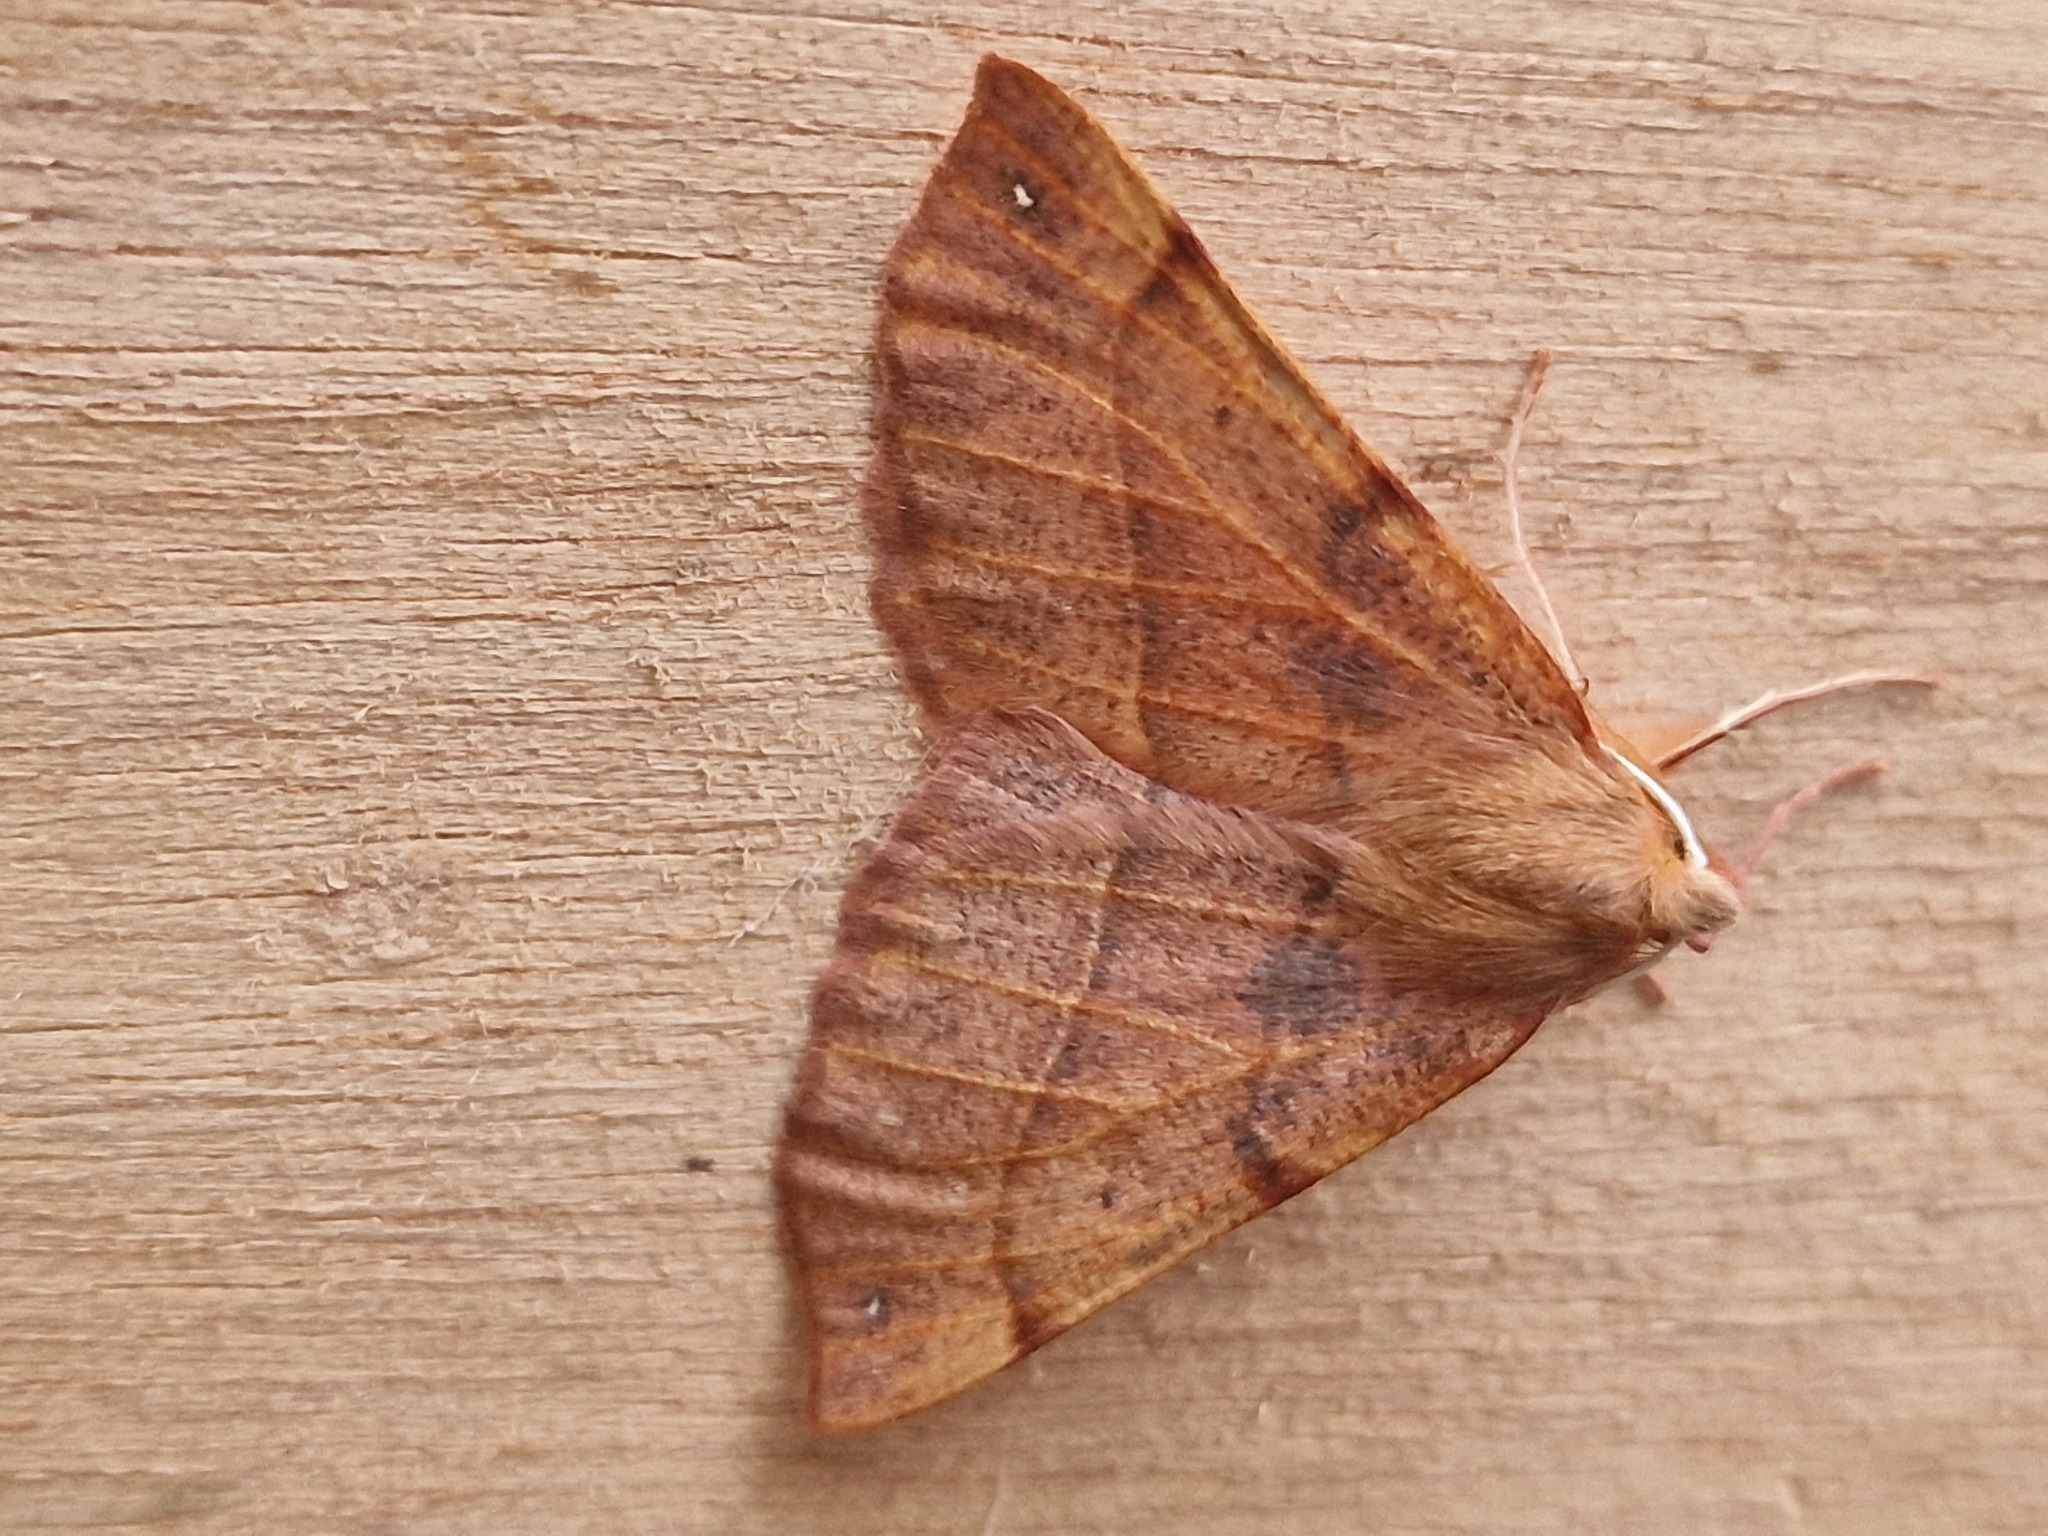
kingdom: Animalia
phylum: Arthropoda
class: Insecta
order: Lepidoptera
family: Geometridae
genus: Colotois
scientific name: Colotois pennaria
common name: Feathered thorn
